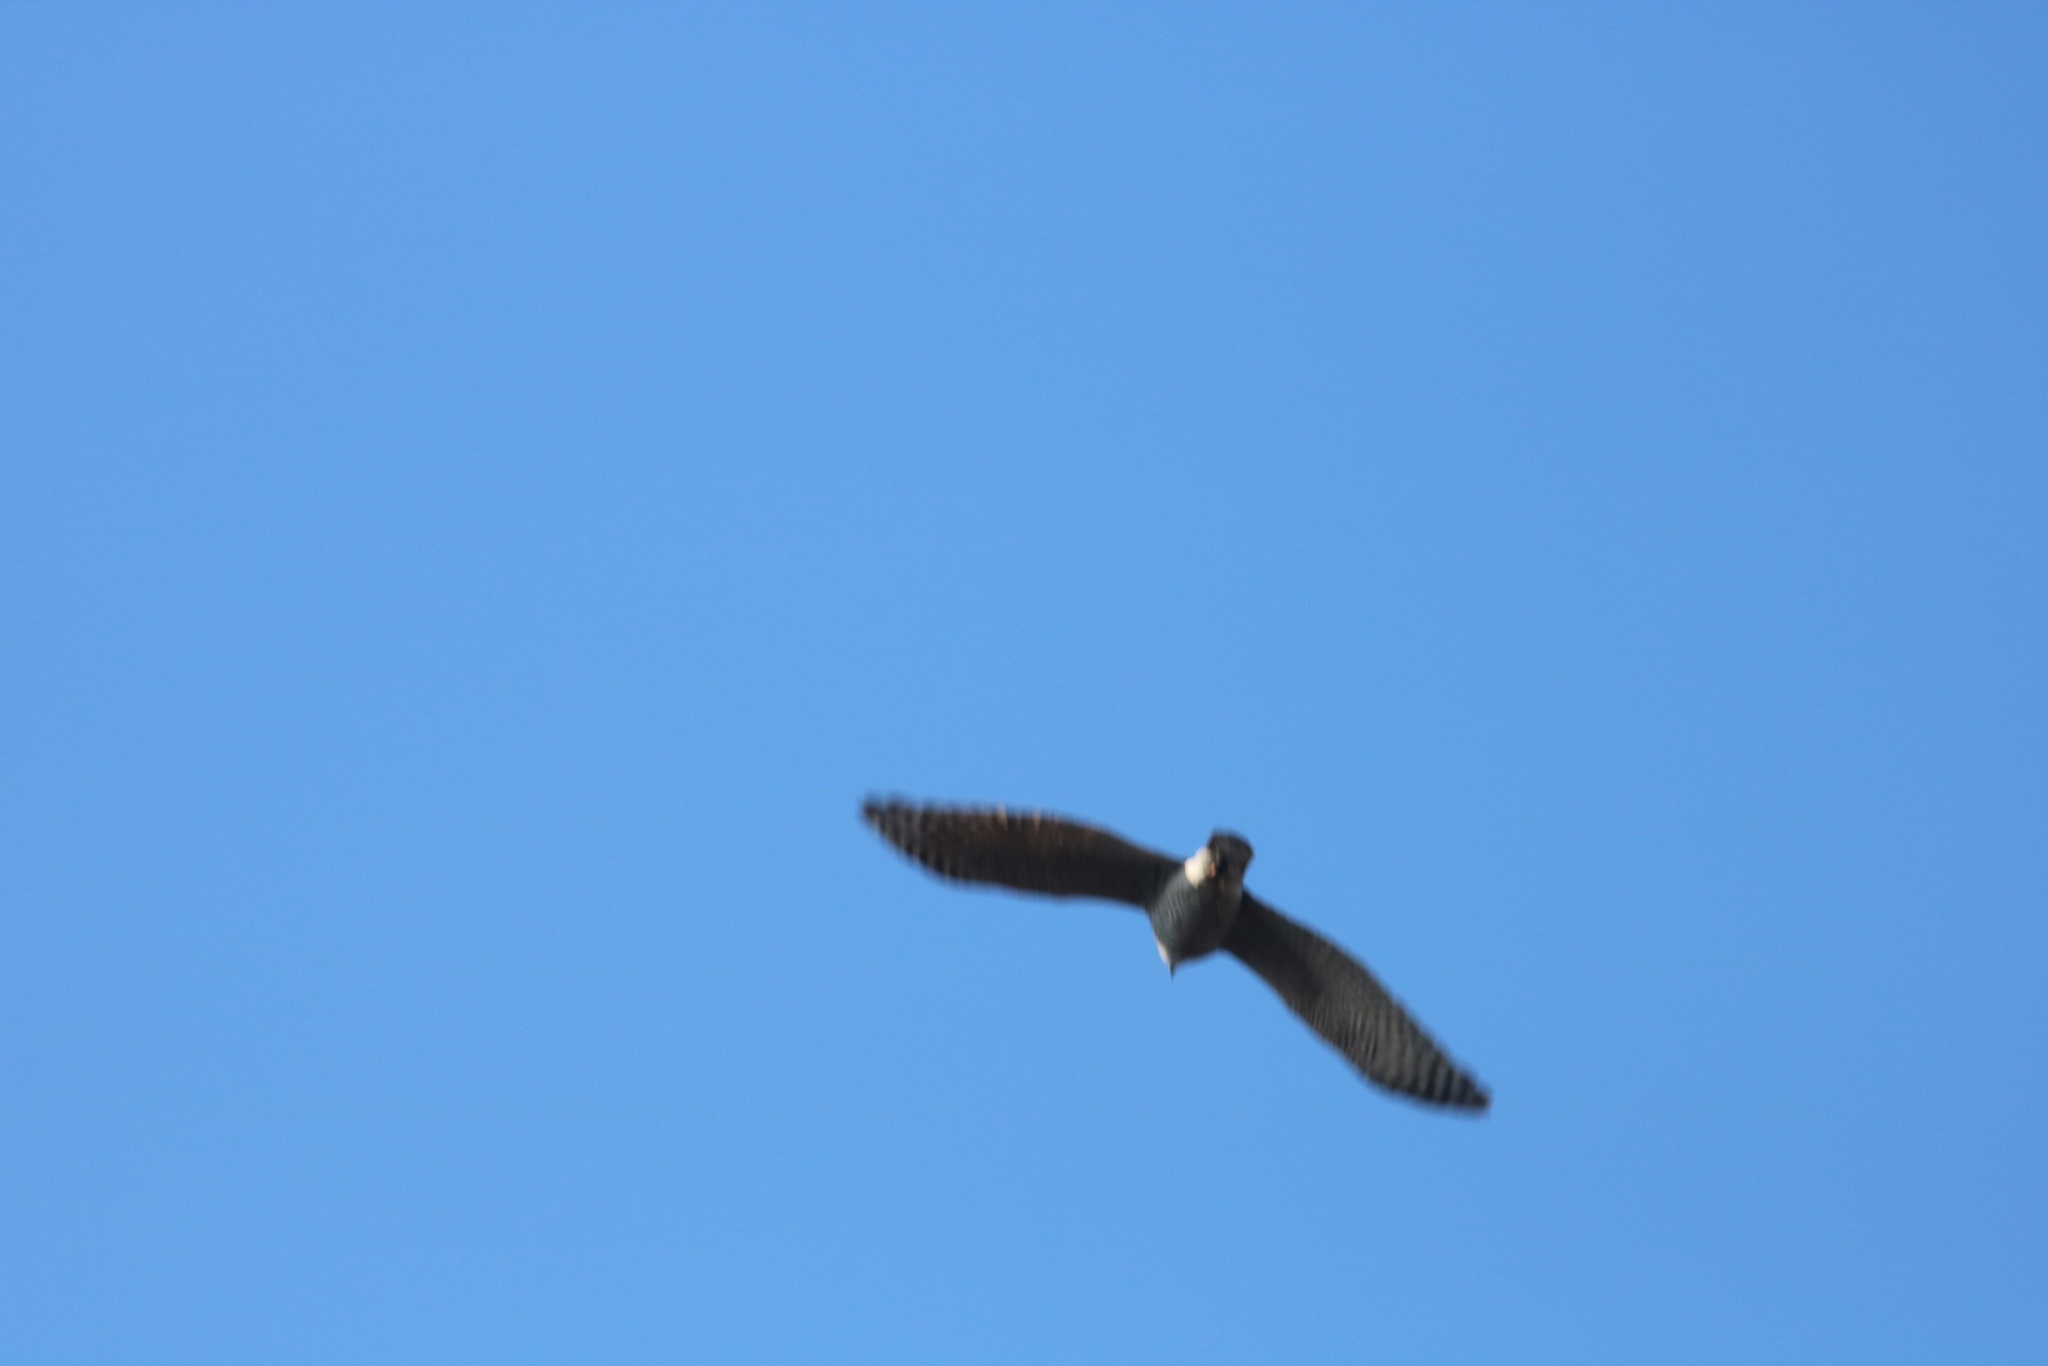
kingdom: Animalia
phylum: Chordata
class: Aves
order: Accipitriformes
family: Accipitridae
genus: Accipiter
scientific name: Accipiter gentilis
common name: Northern goshawk
